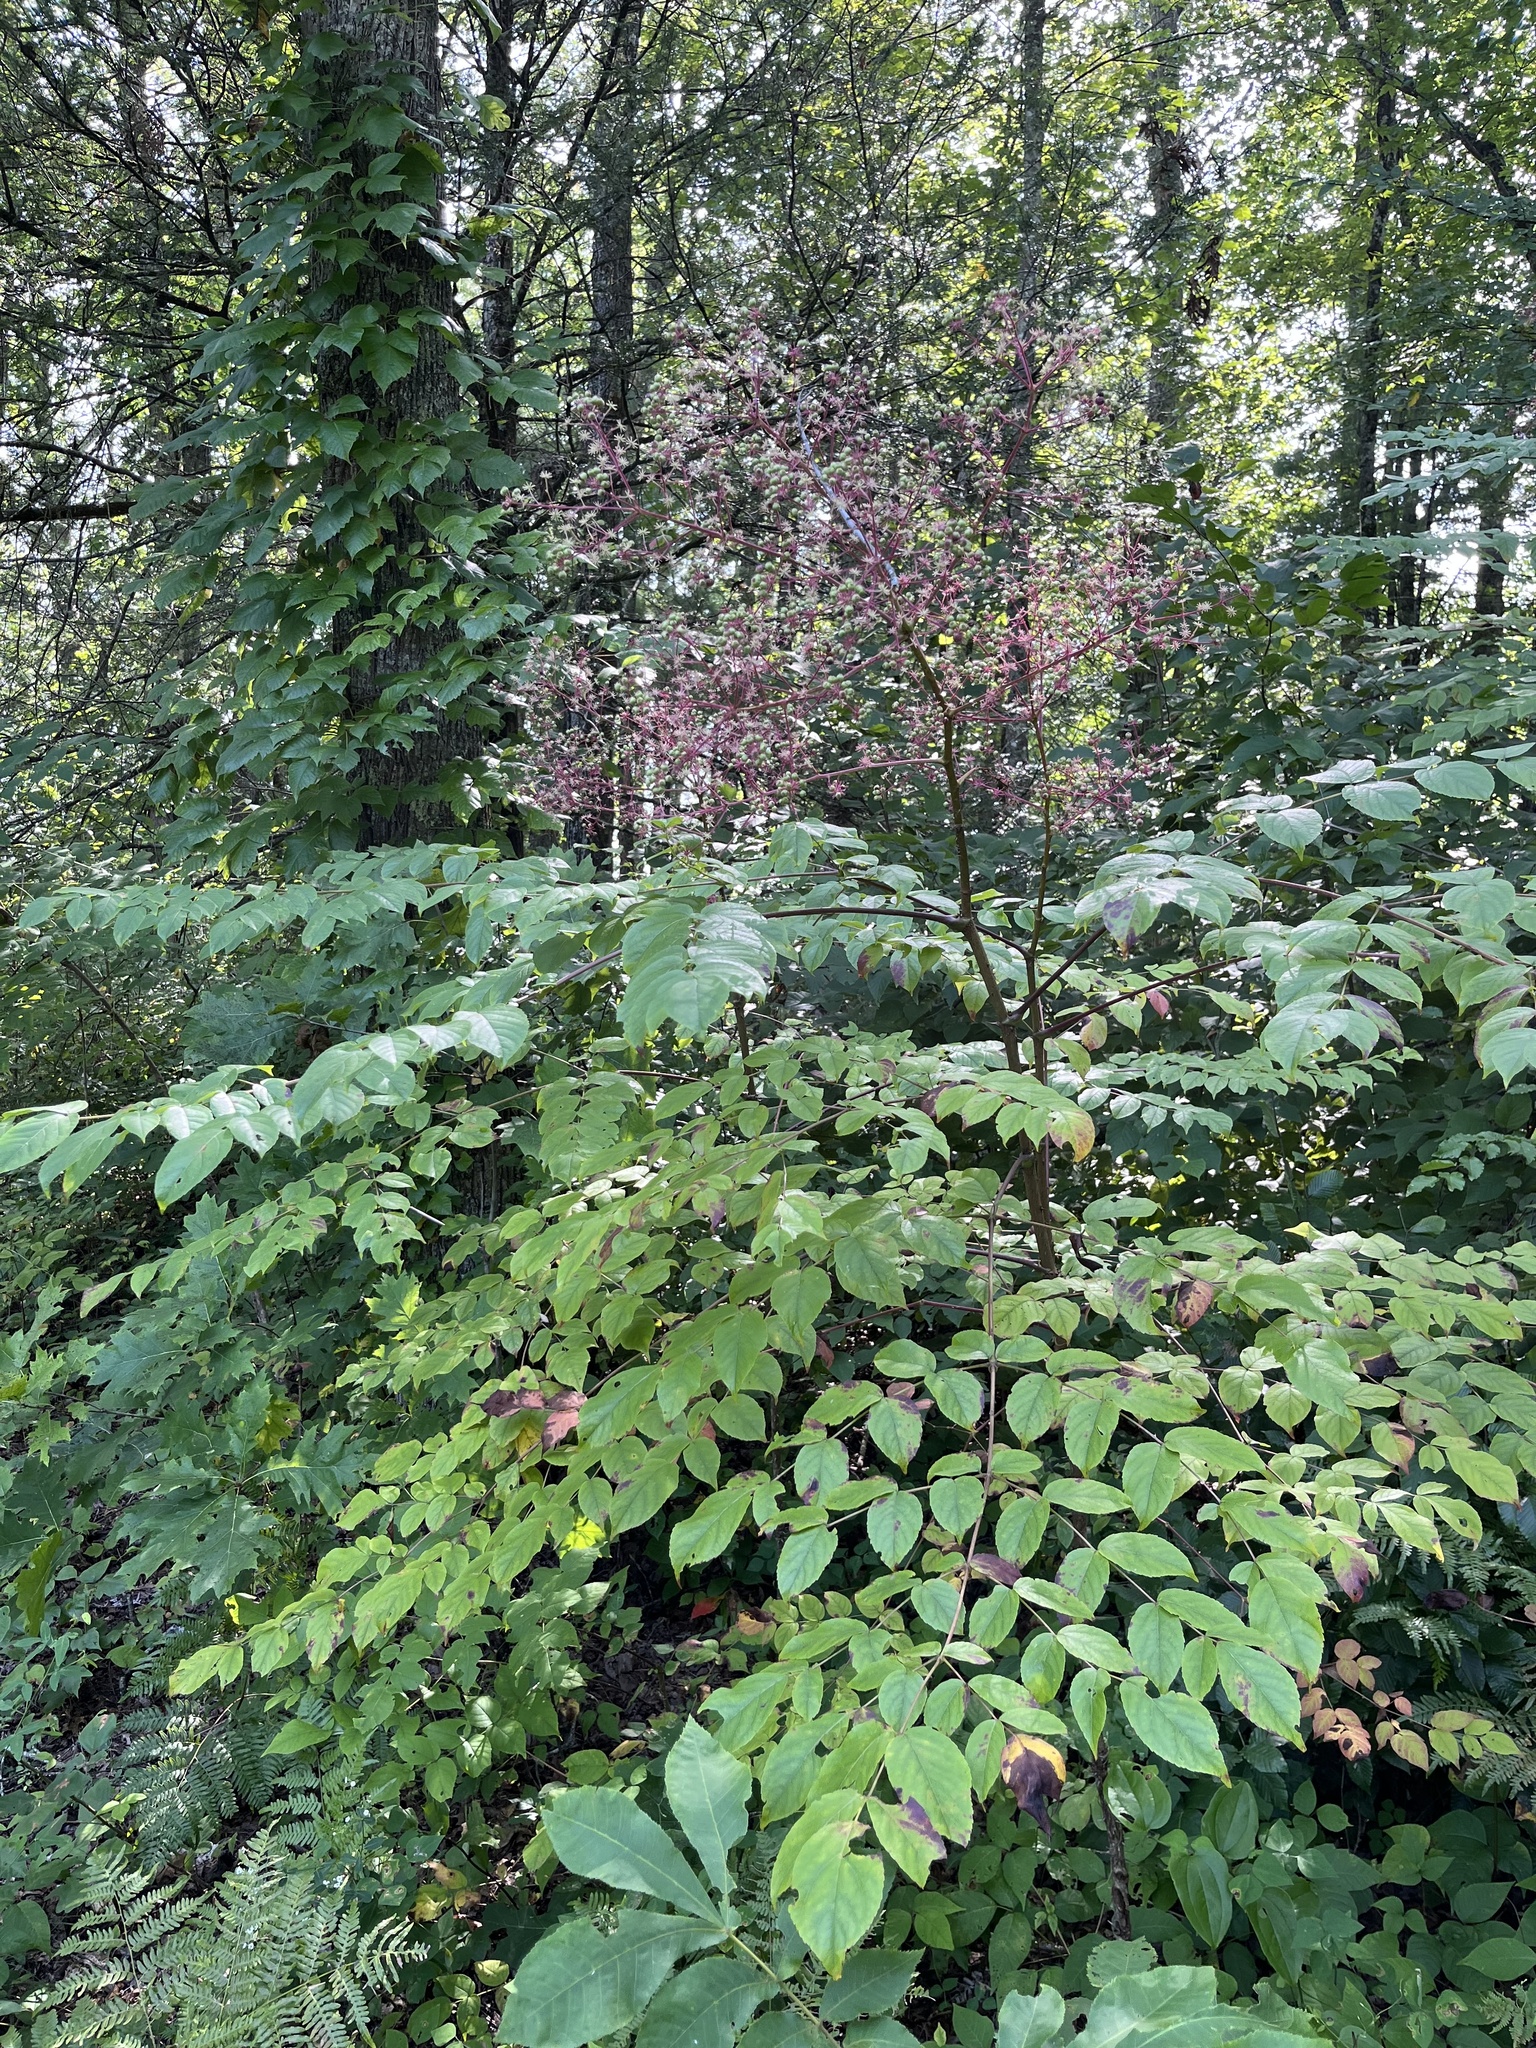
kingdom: Plantae
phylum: Tracheophyta
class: Magnoliopsida
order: Apiales
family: Araliaceae
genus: Aralia
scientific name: Aralia spinosa
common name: Hercules'-club
